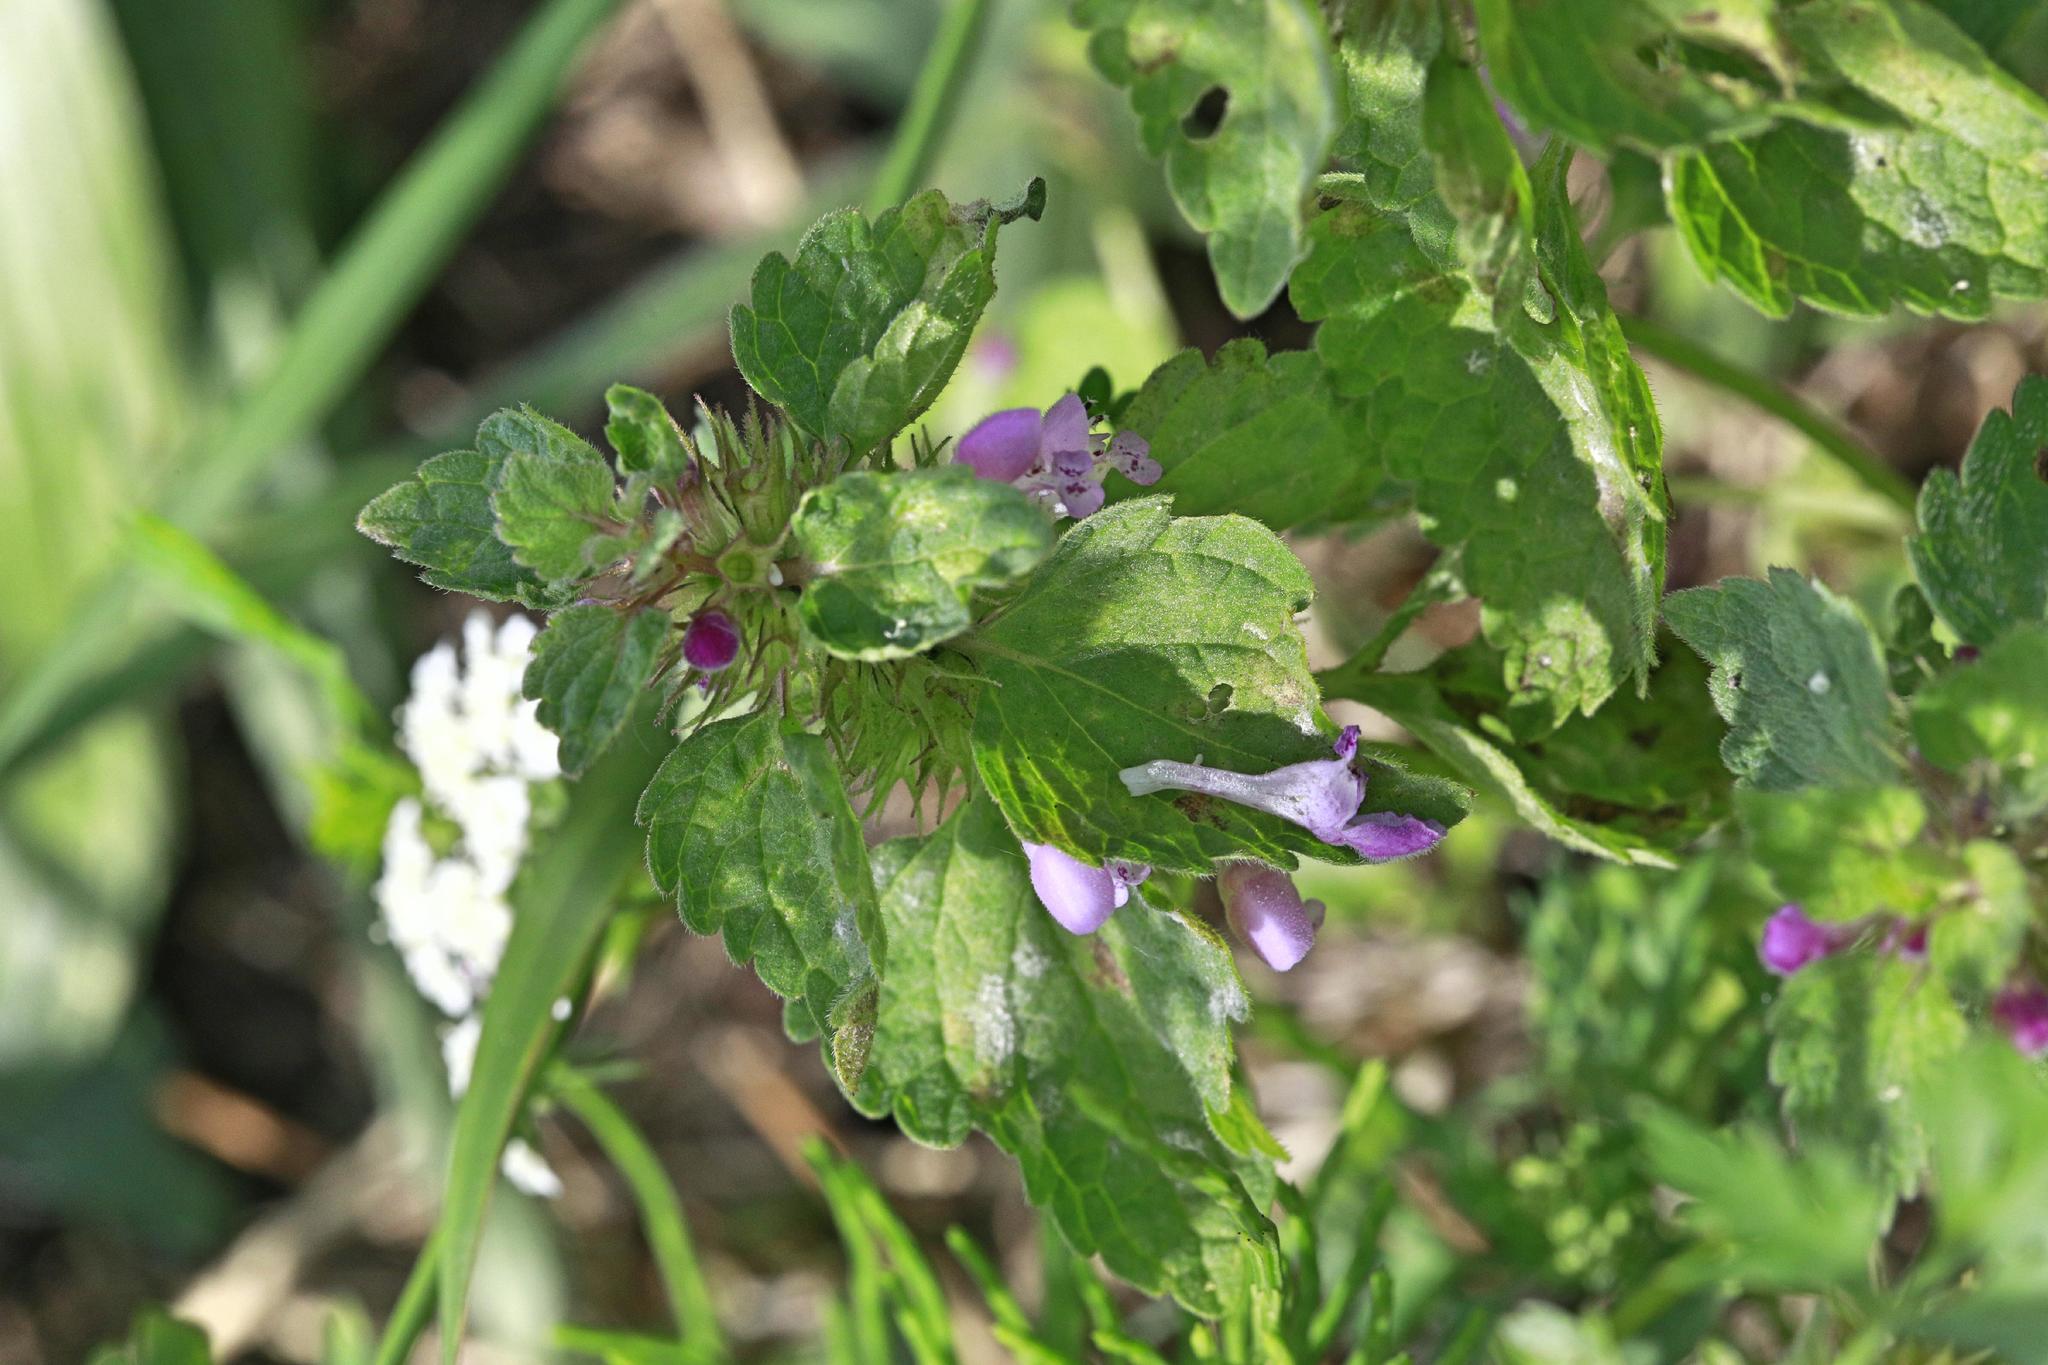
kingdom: Plantae
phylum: Tracheophyta
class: Magnoliopsida
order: Lamiales
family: Lamiaceae
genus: Lamium
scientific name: Lamium purpureum
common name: Red dead-nettle
